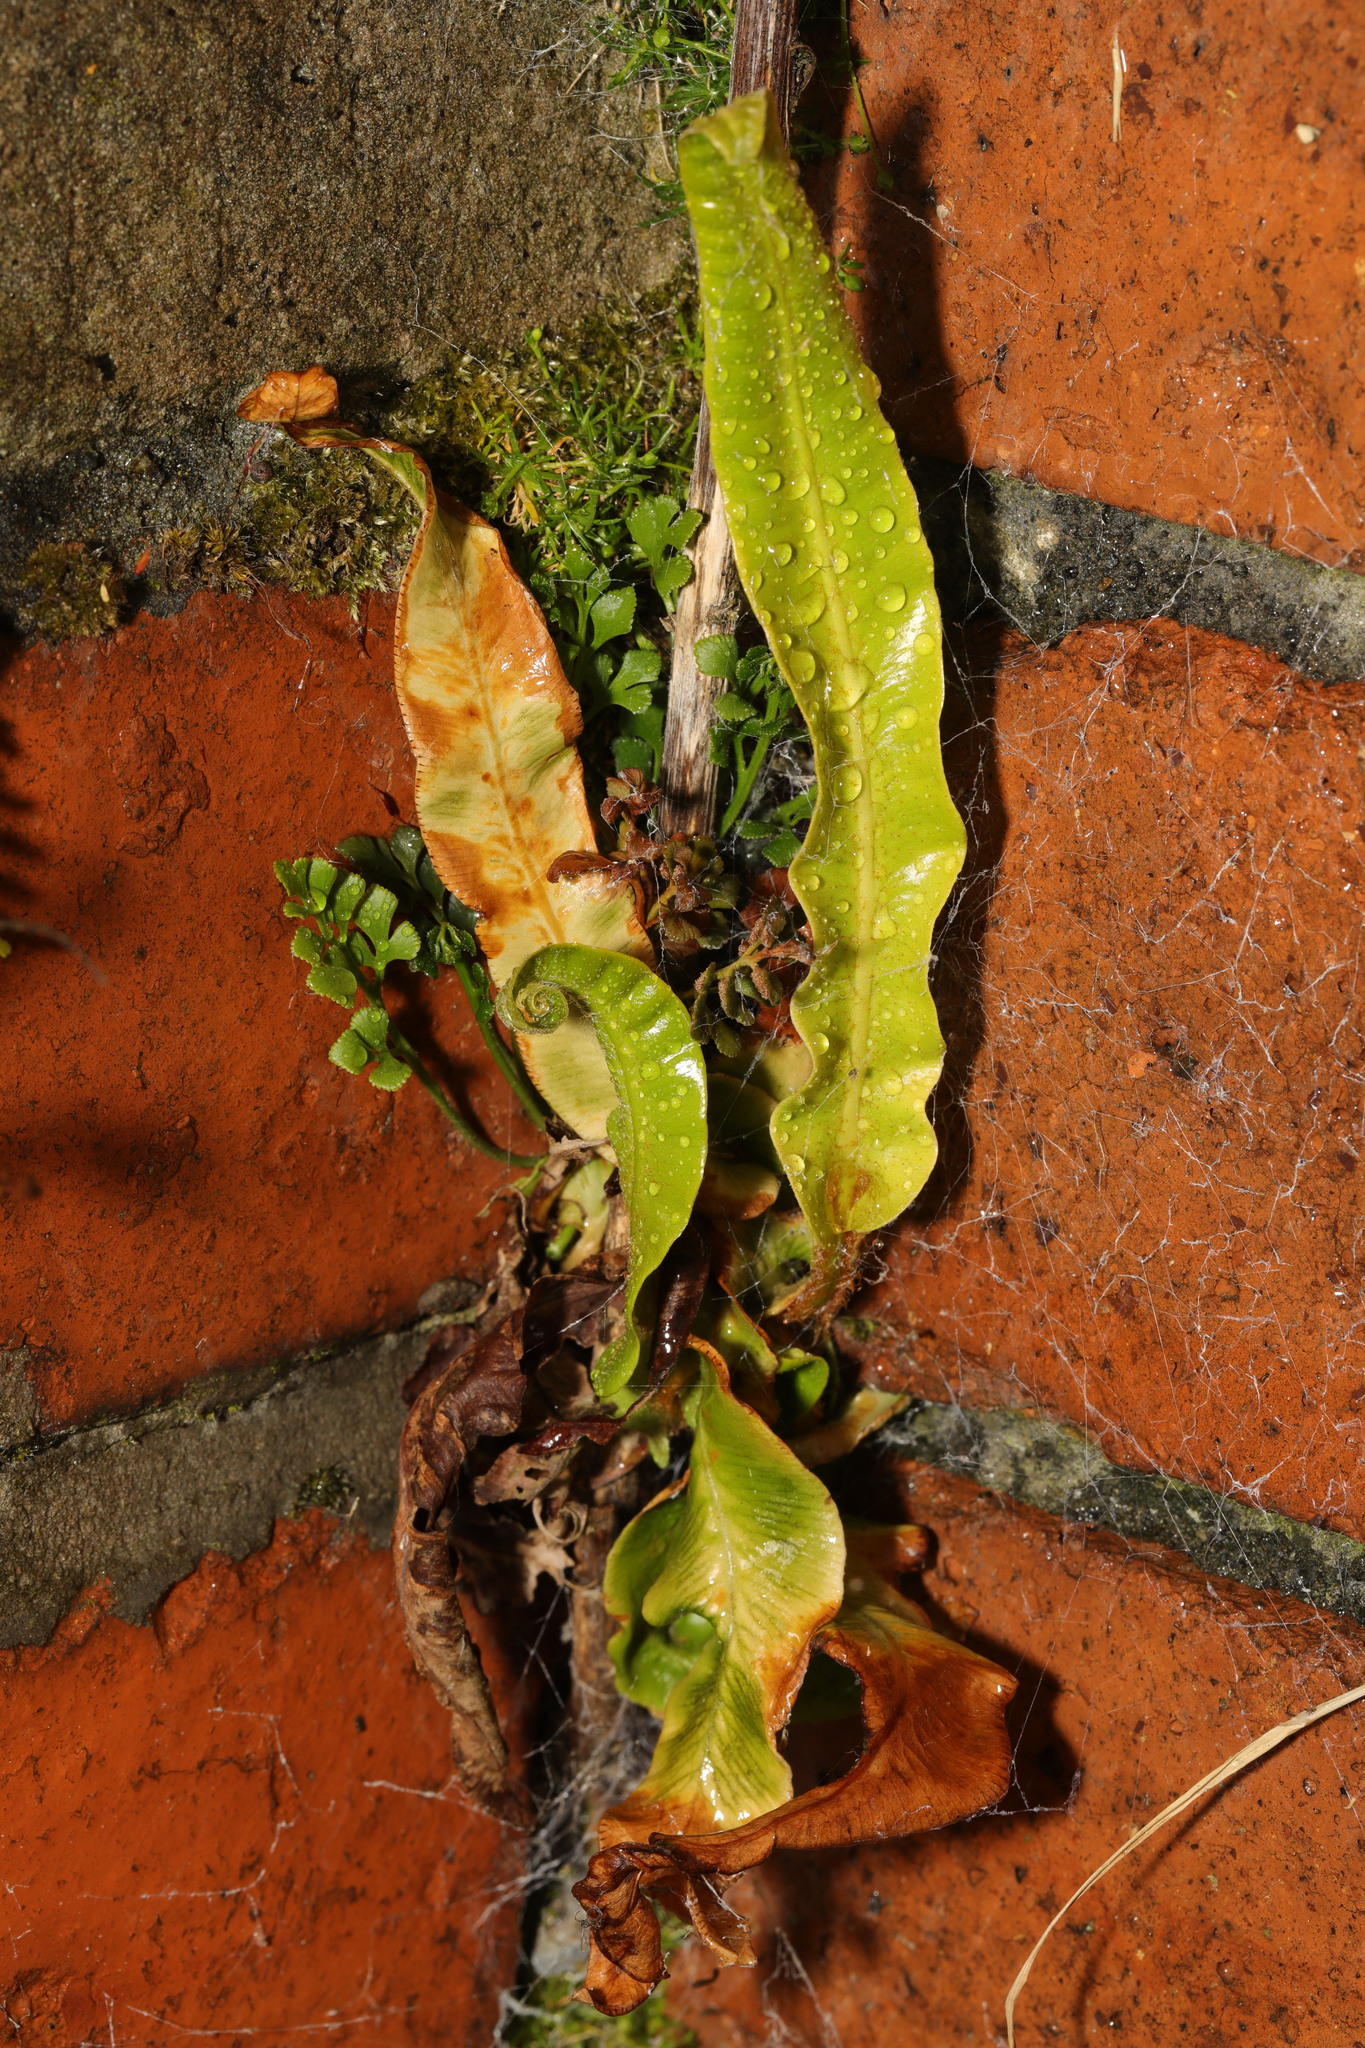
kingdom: Plantae
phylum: Tracheophyta
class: Polypodiopsida
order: Polypodiales
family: Aspleniaceae
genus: Asplenium
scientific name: Asplenium scolopendrium
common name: Hart's-tongue fern
